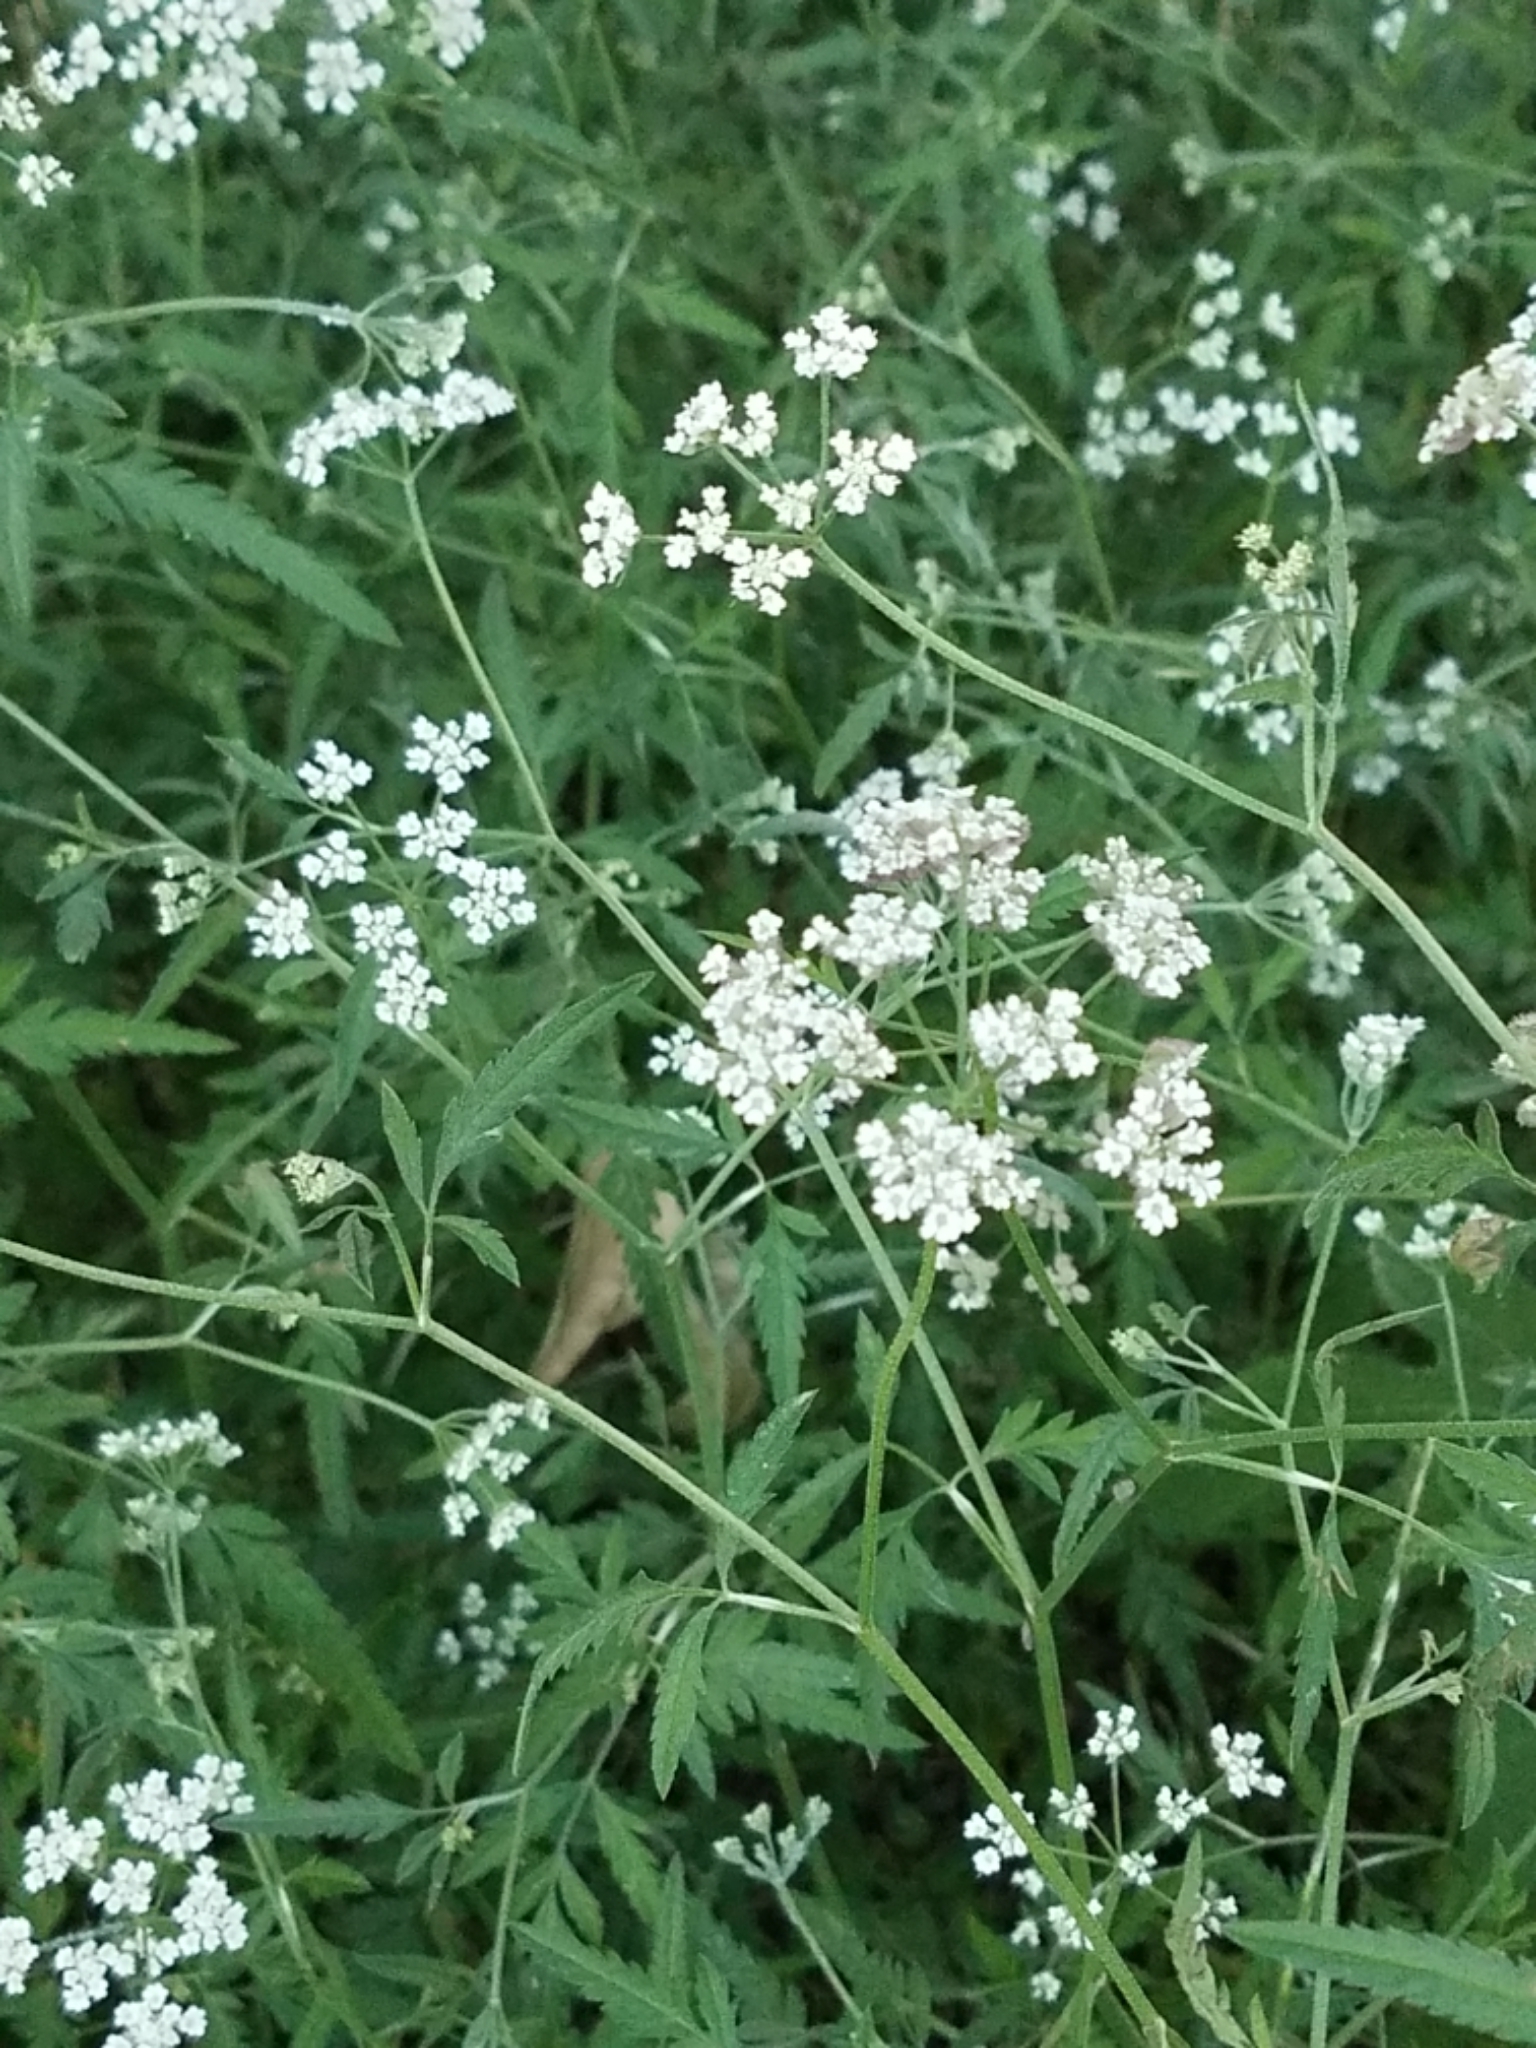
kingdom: Plantae
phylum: Tracheophyta
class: Magnoliopsida
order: Apiales
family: Apiaceae
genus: Torilis
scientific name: Torilis arvensis
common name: Spreading hedge-parsley
